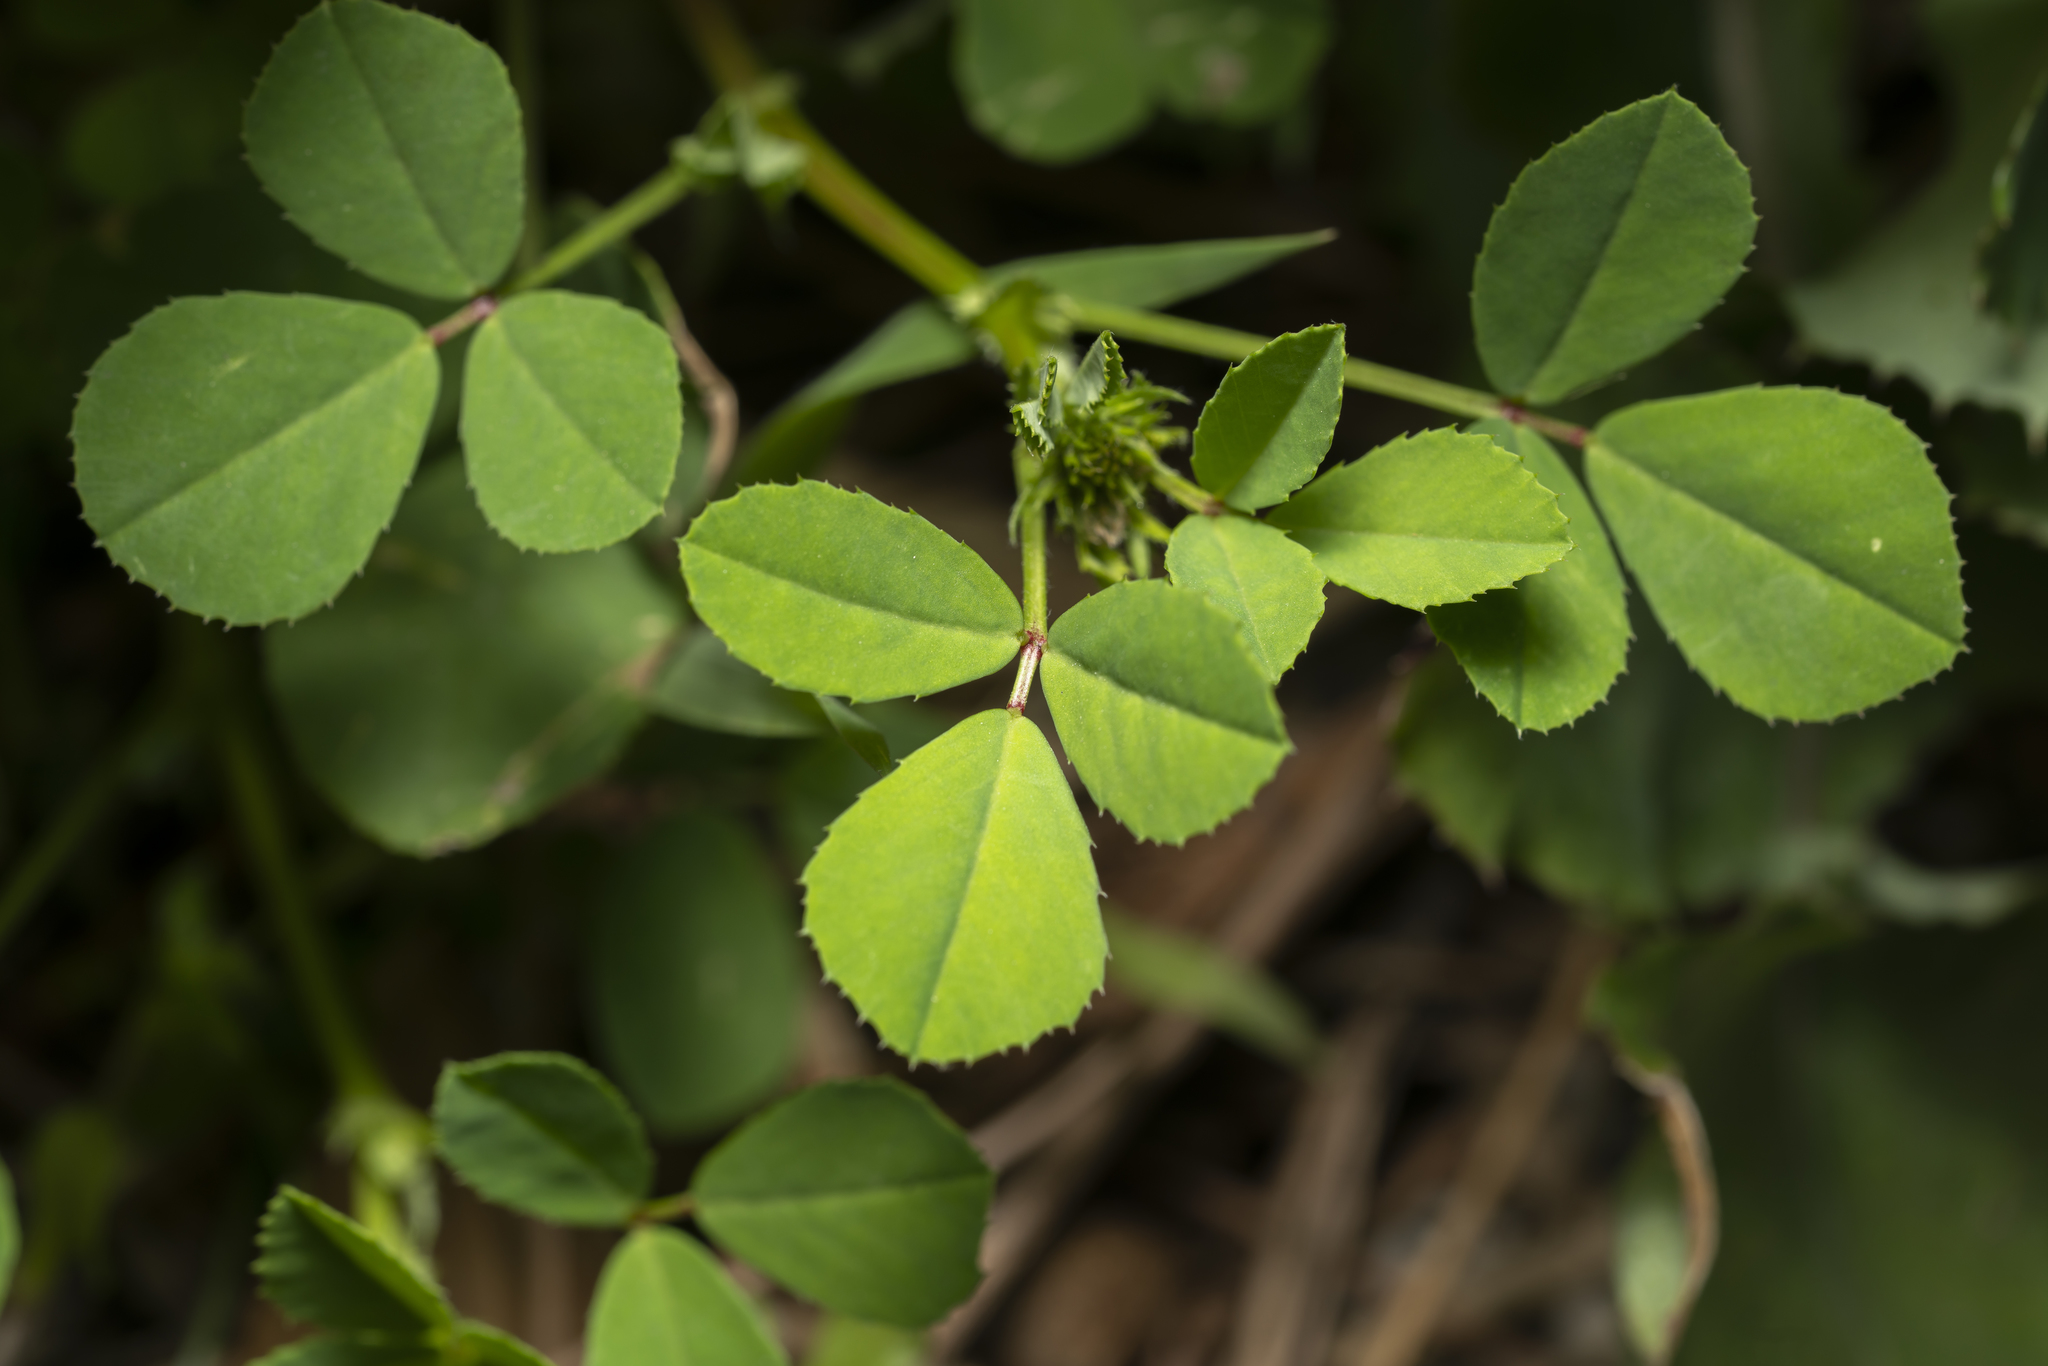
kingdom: Plantae
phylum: Tracheophyta
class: Magnoliopsida
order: Fabales
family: Fabaceae
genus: Trigonella
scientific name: Trigonella balansae
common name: Sickle-fruited fenugreek
